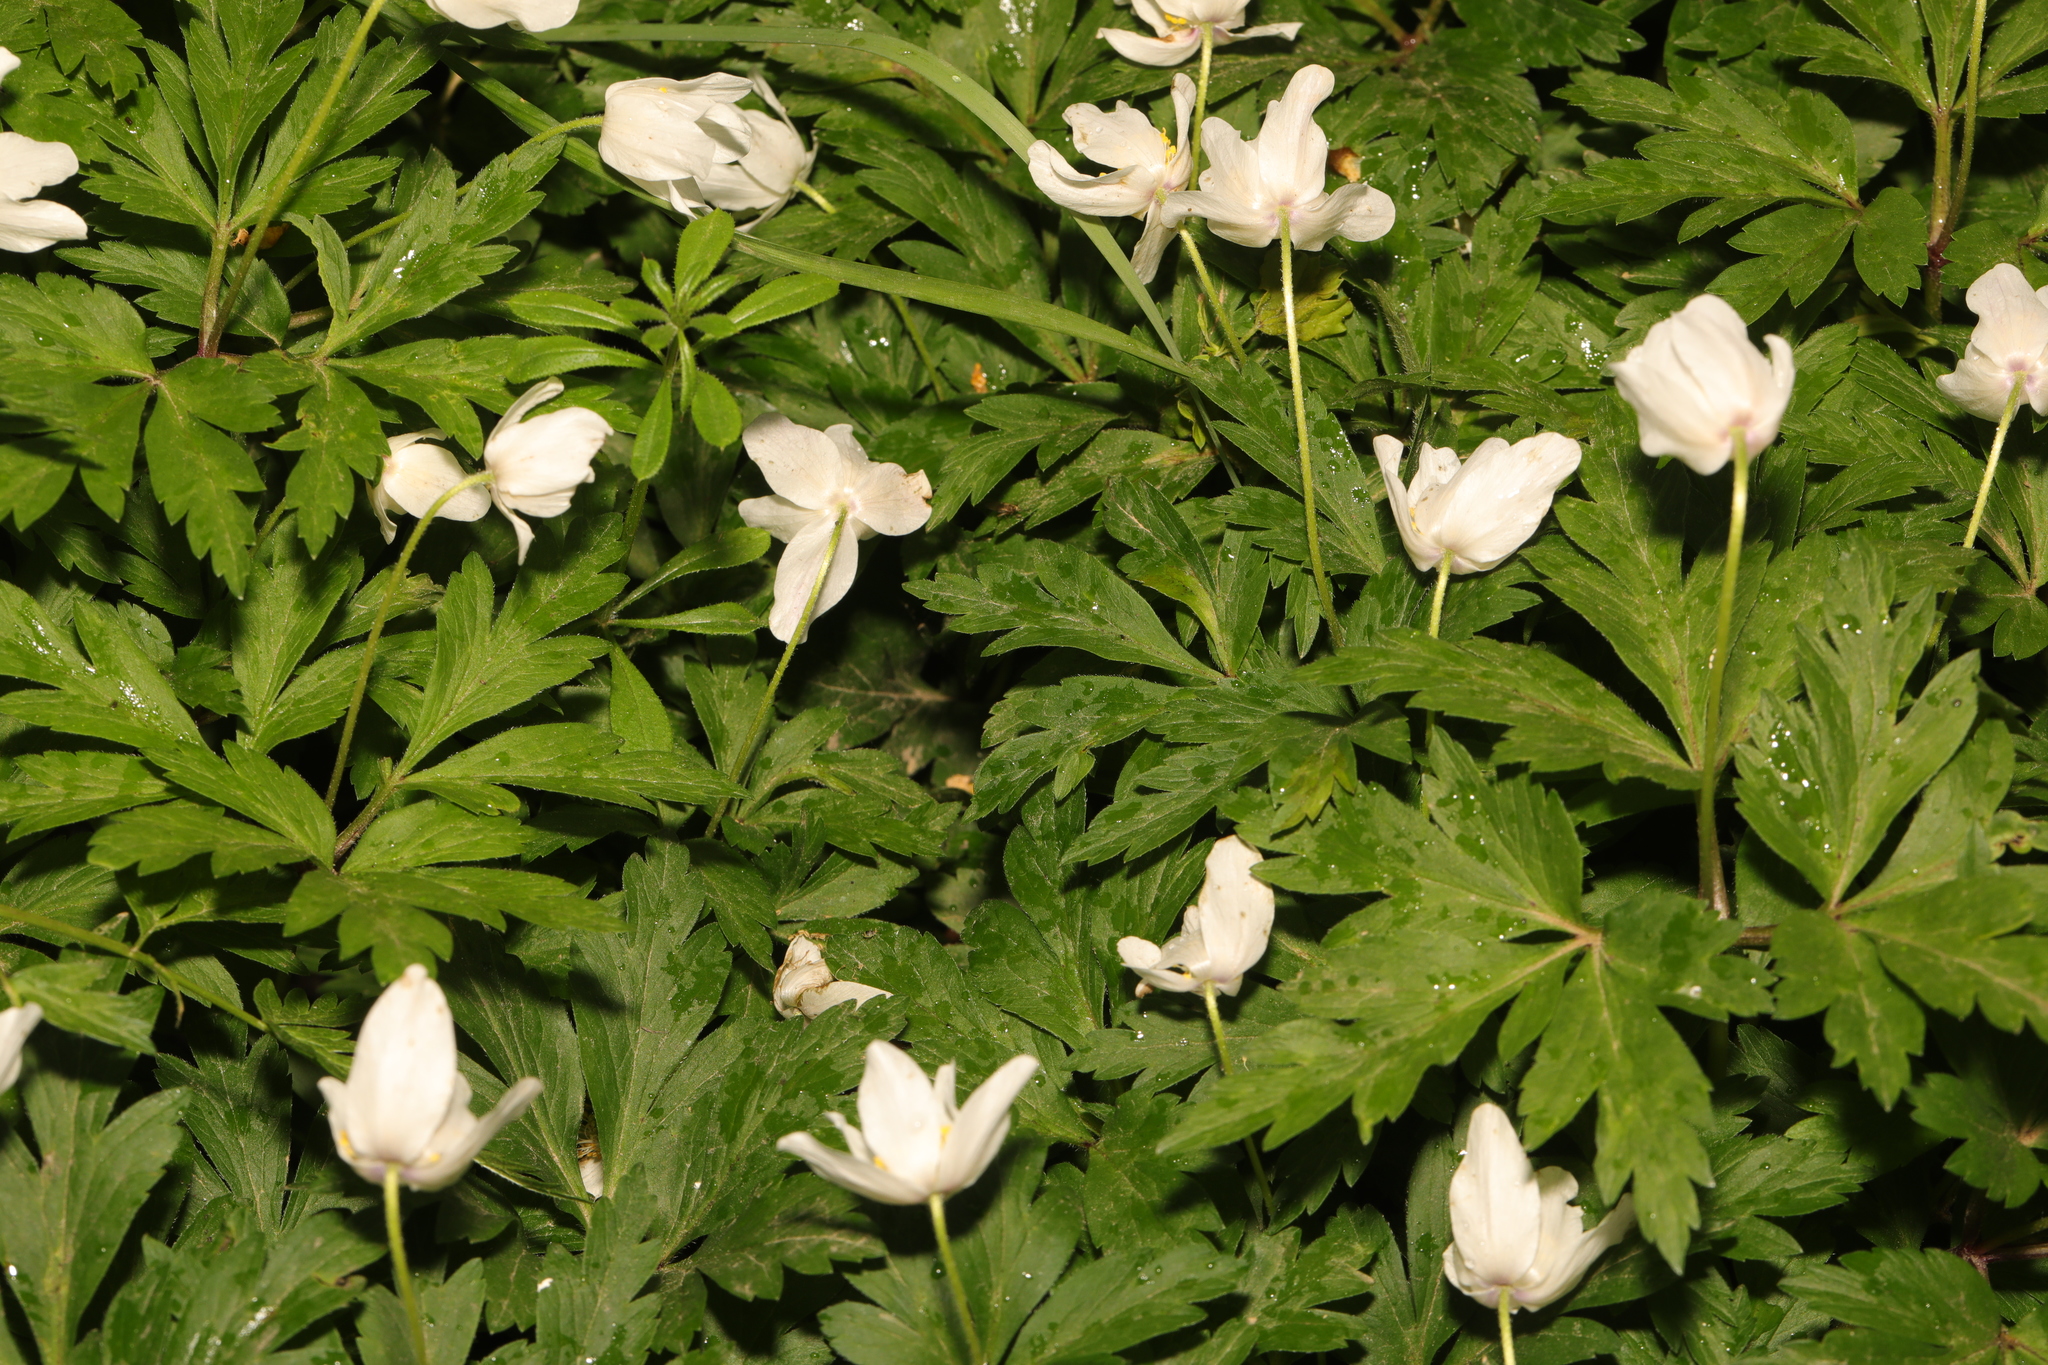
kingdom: Plantae
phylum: Tracheophyta
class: Magnoliopsida
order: Ranunculales
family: Ranunculaceae
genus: Anemone
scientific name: Anemone nemorosa
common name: Wood anemone
